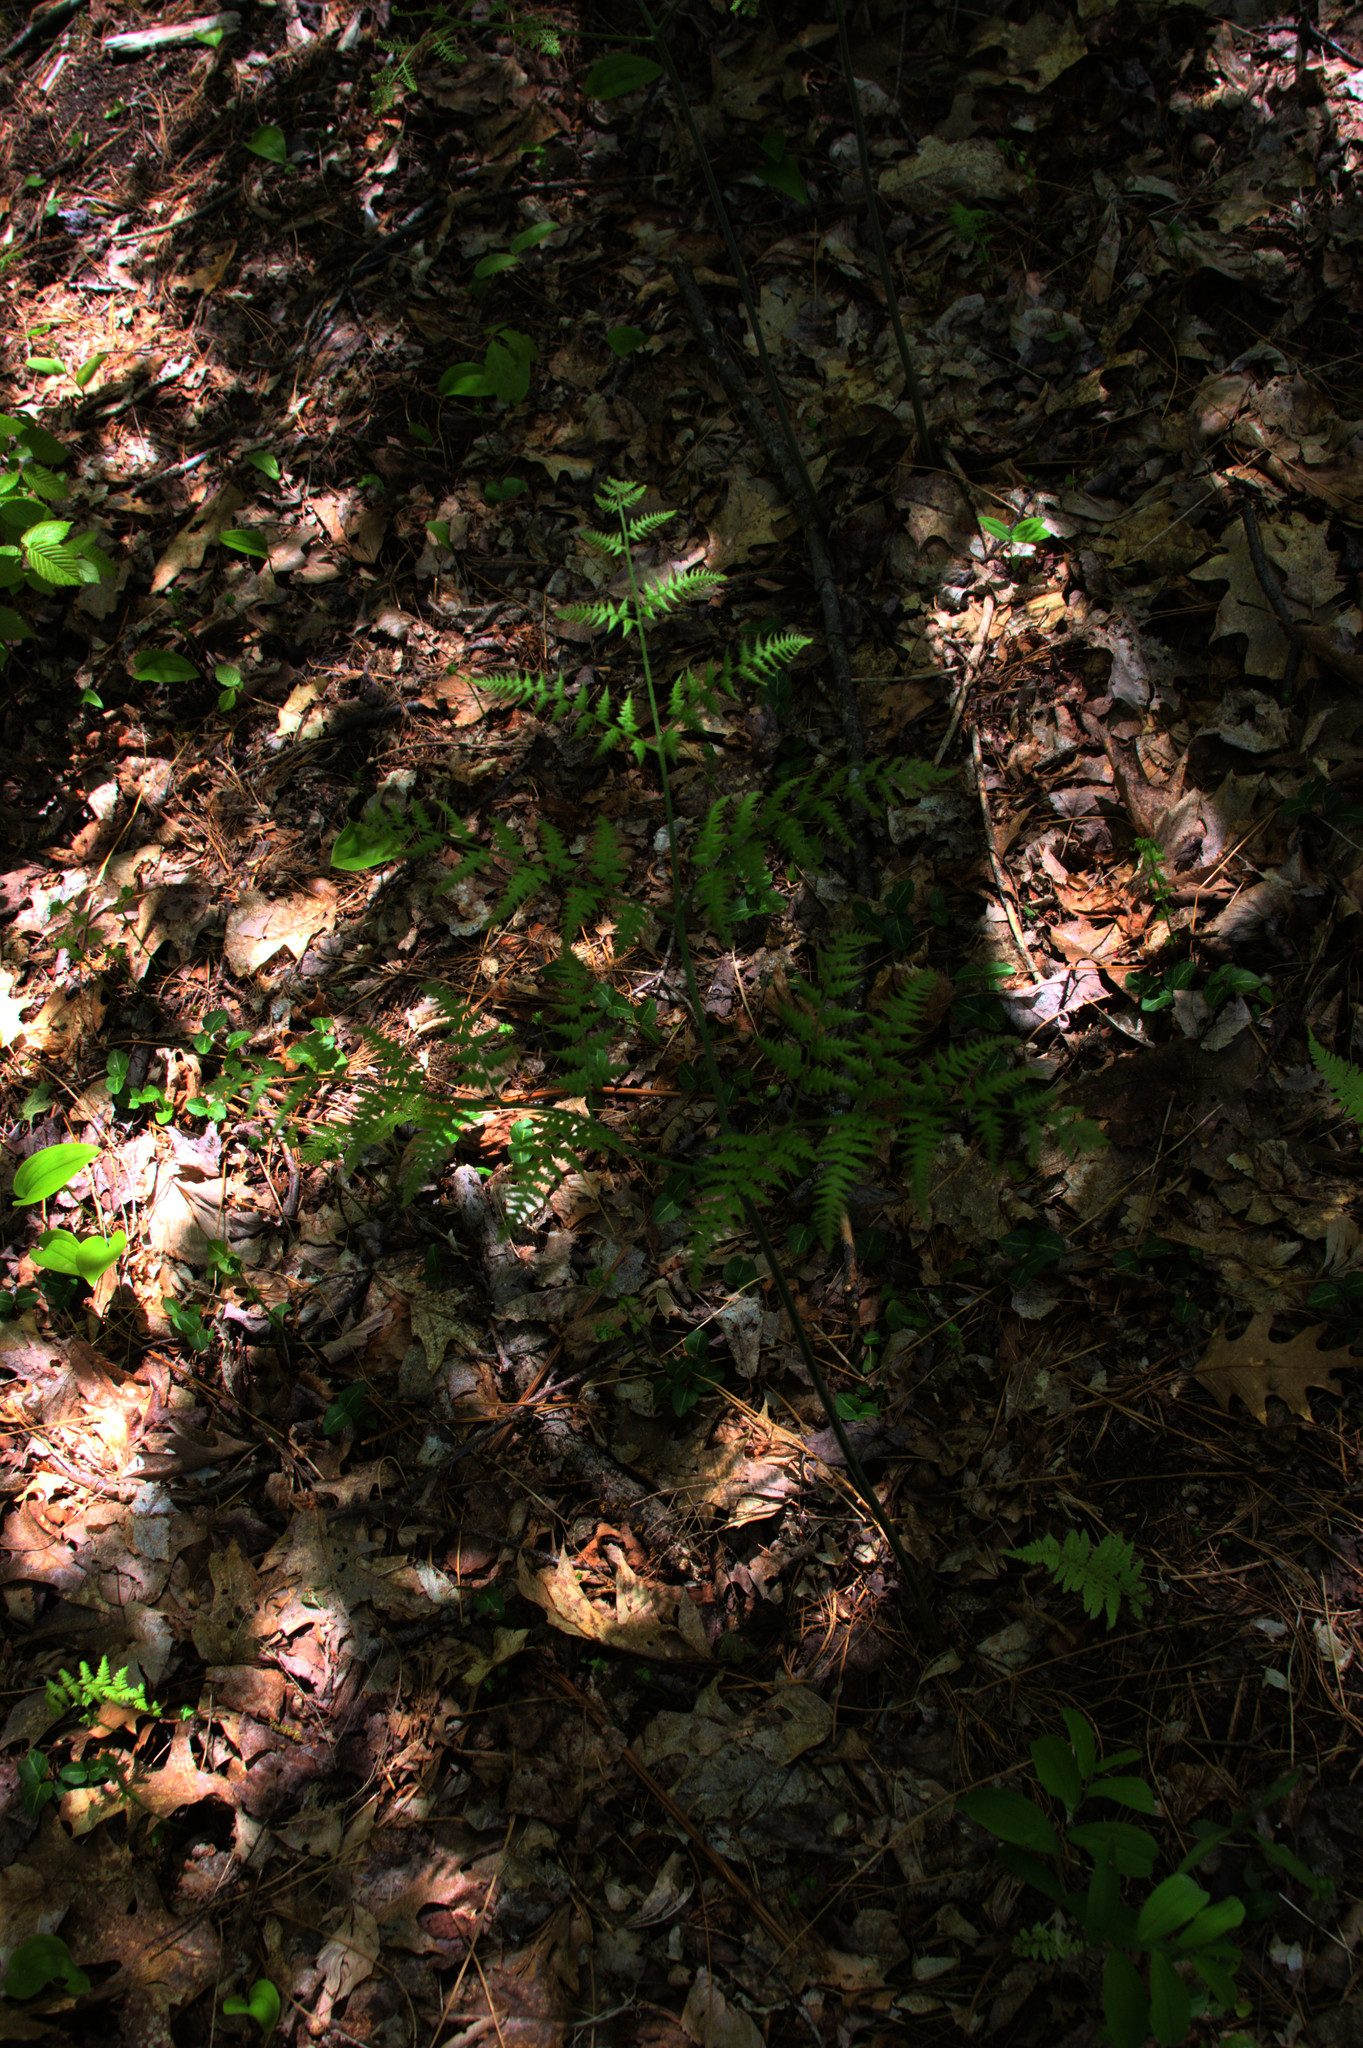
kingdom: Plantae
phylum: Tracheophyta
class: Polypodiopsida
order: Polypodiales
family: Dennstaedtiaceae
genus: Pteridium
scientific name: Pteridium aquilinum
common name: Bracken
